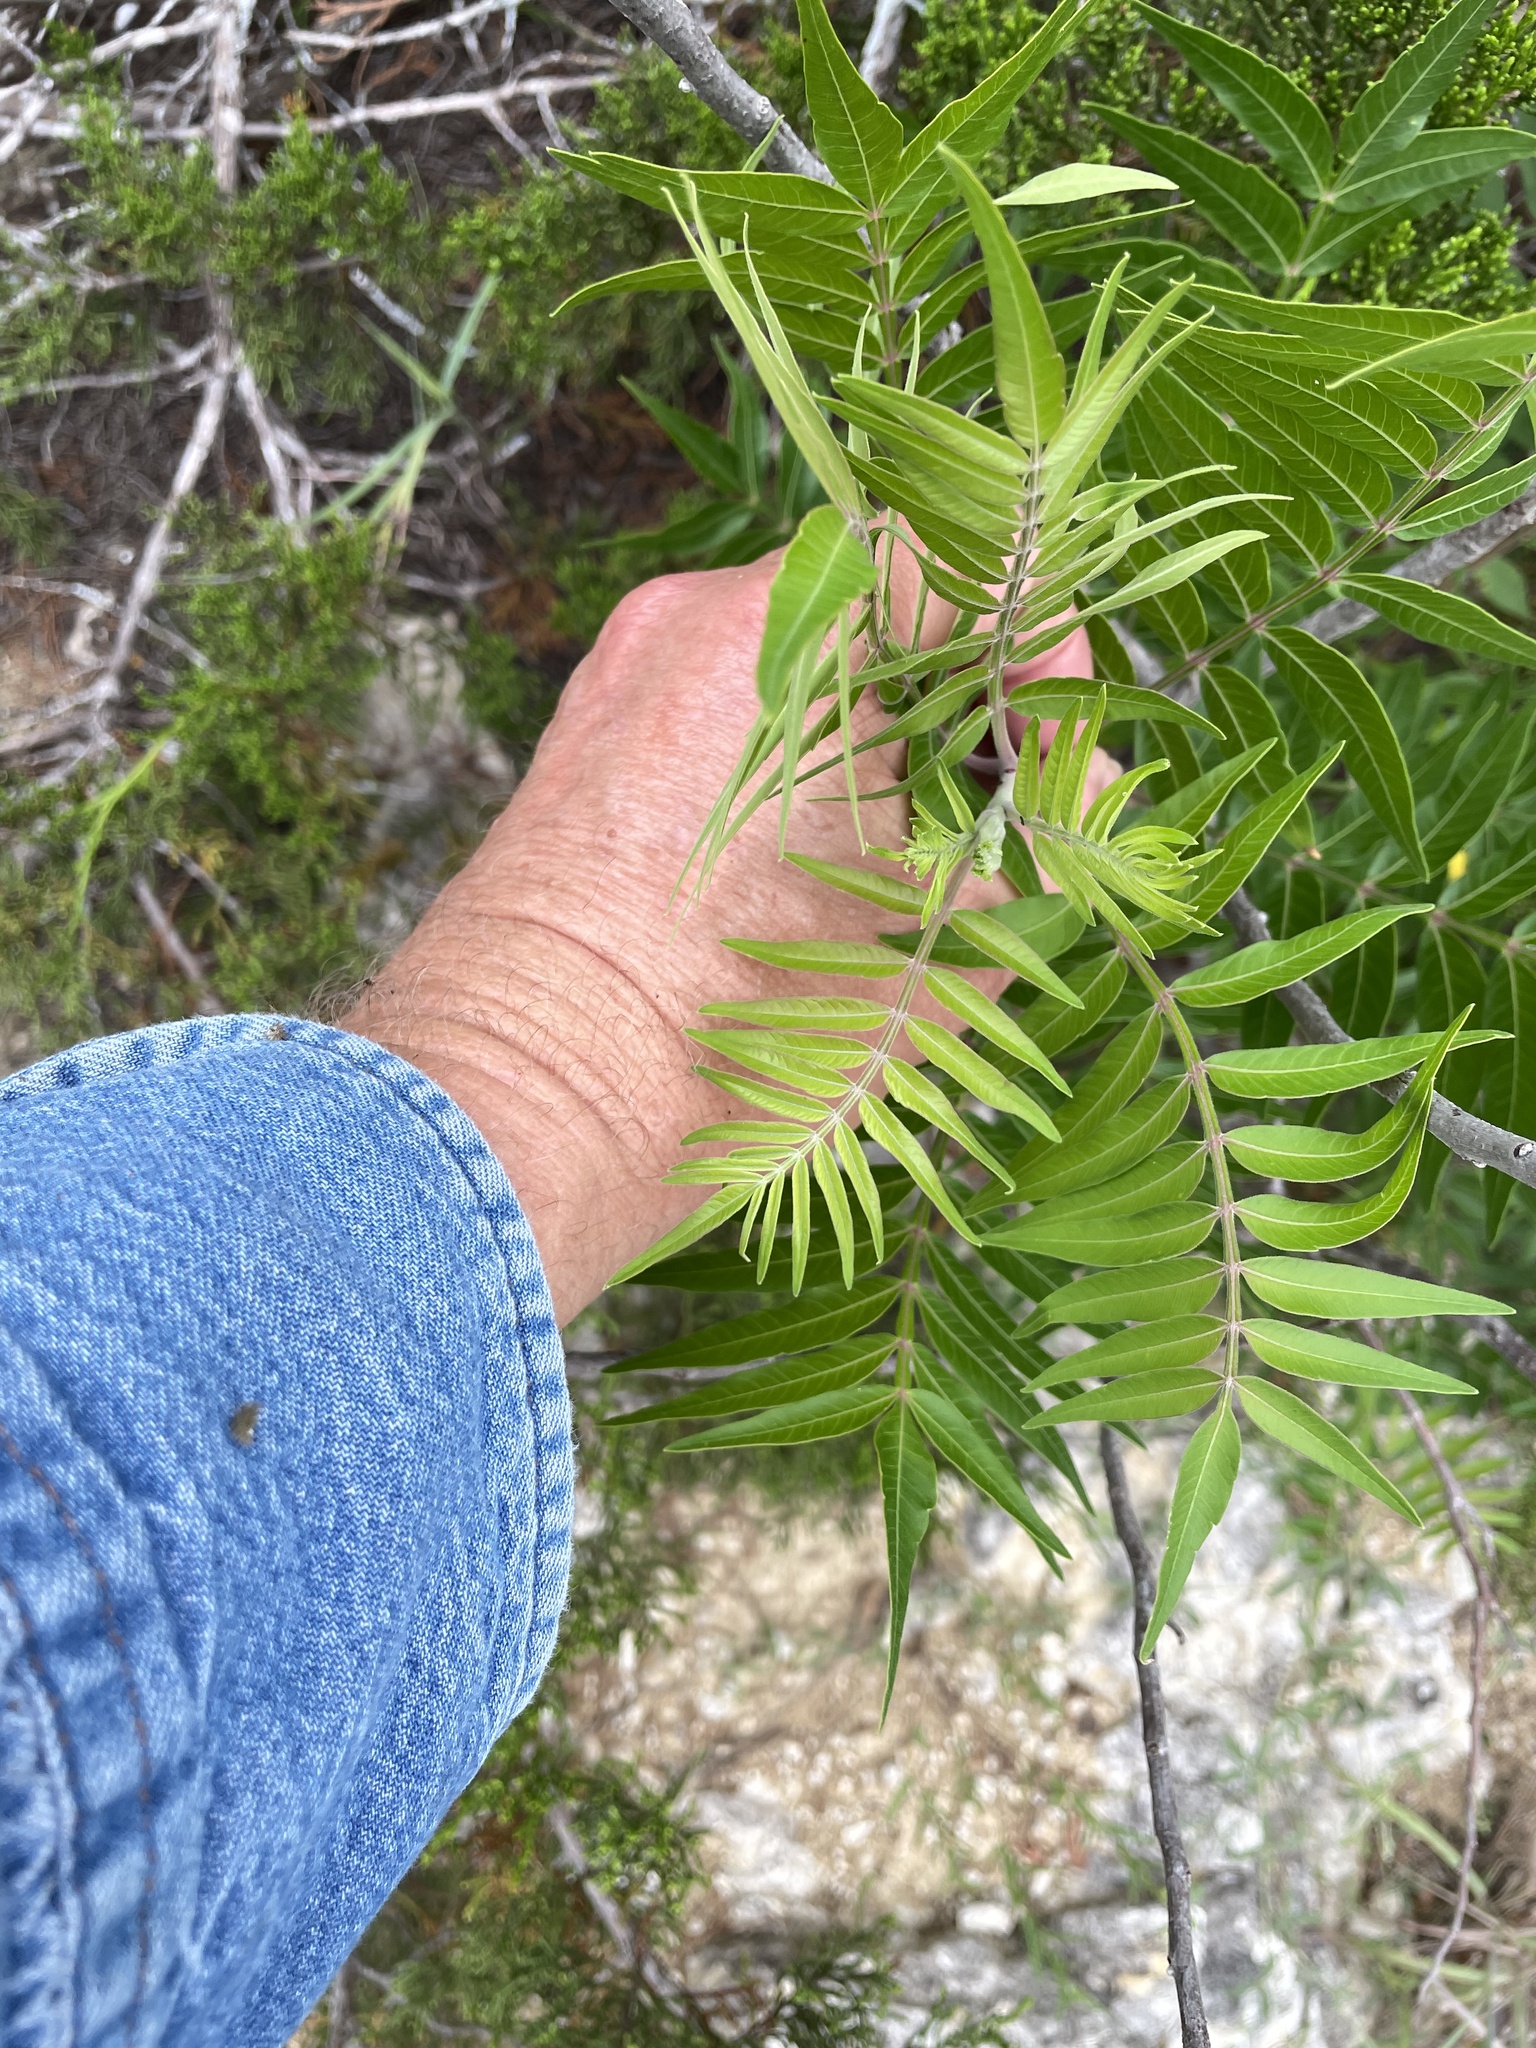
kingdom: Plantae
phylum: Tracheophyta
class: Magnoliopsida
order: Sapindales
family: Anacardiaceae
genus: Rhus
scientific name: Rhus lanceolata
